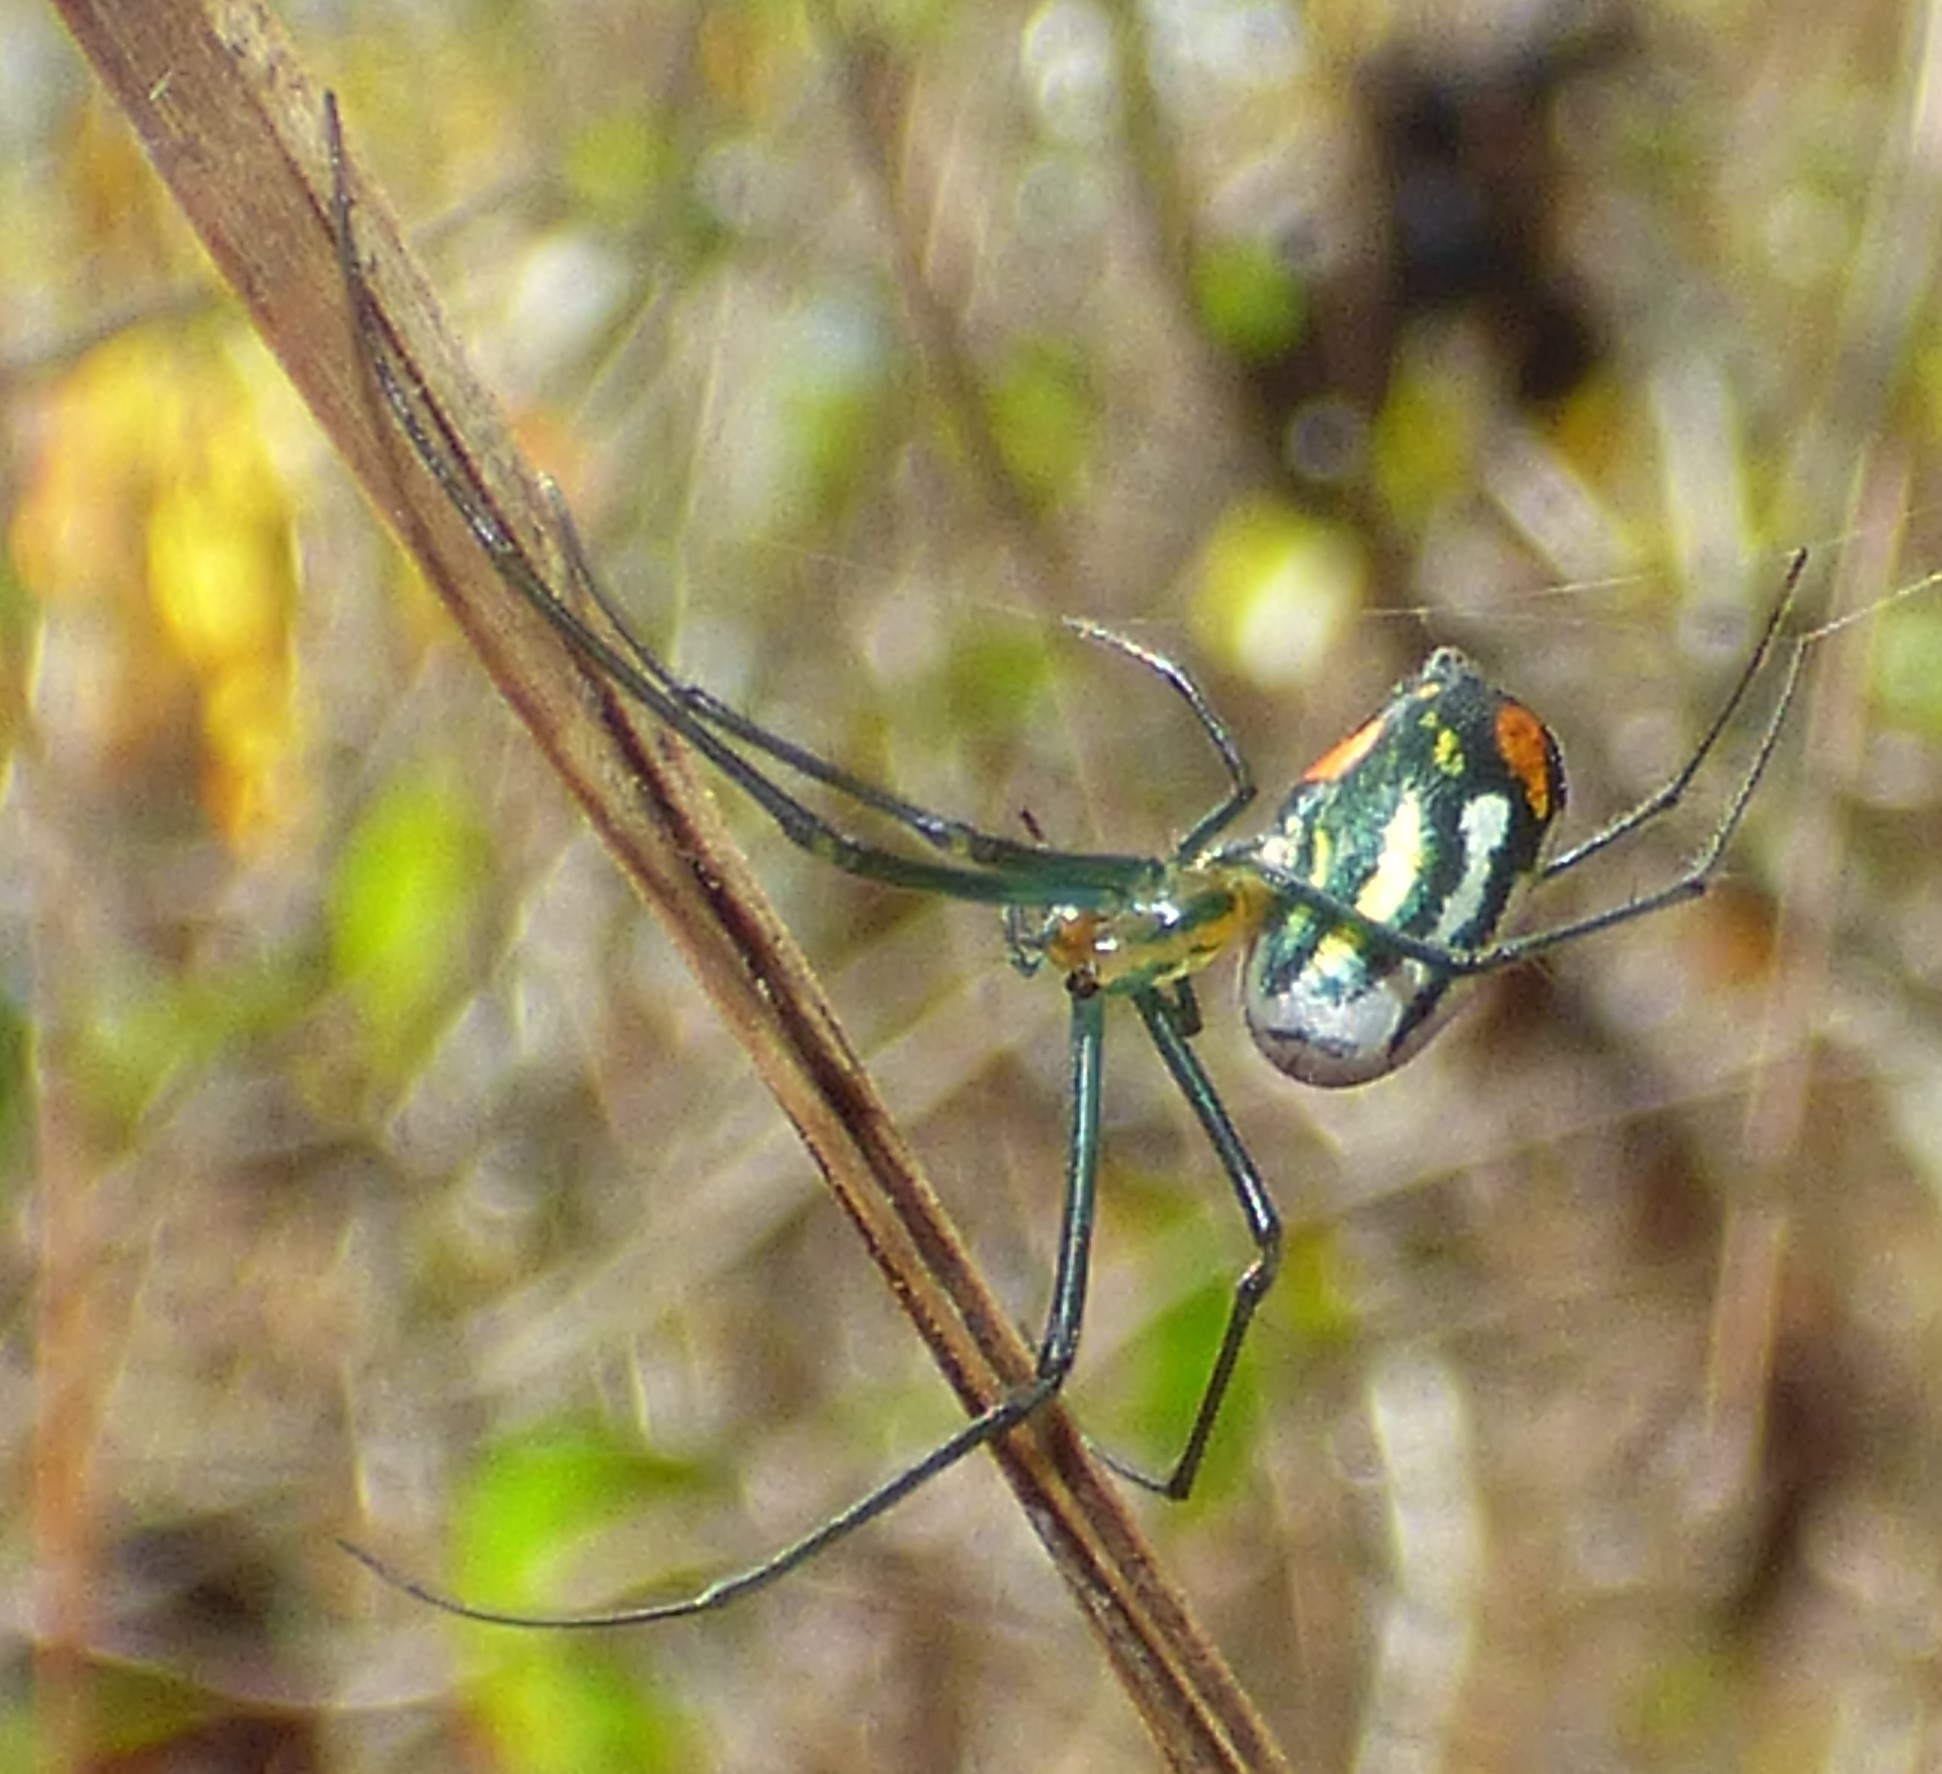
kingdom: Animalia
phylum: Arthropoda
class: Arachnida
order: Araneae
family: Tetragnathidae
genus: Leucauge
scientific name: Leucauge argyrobapta
